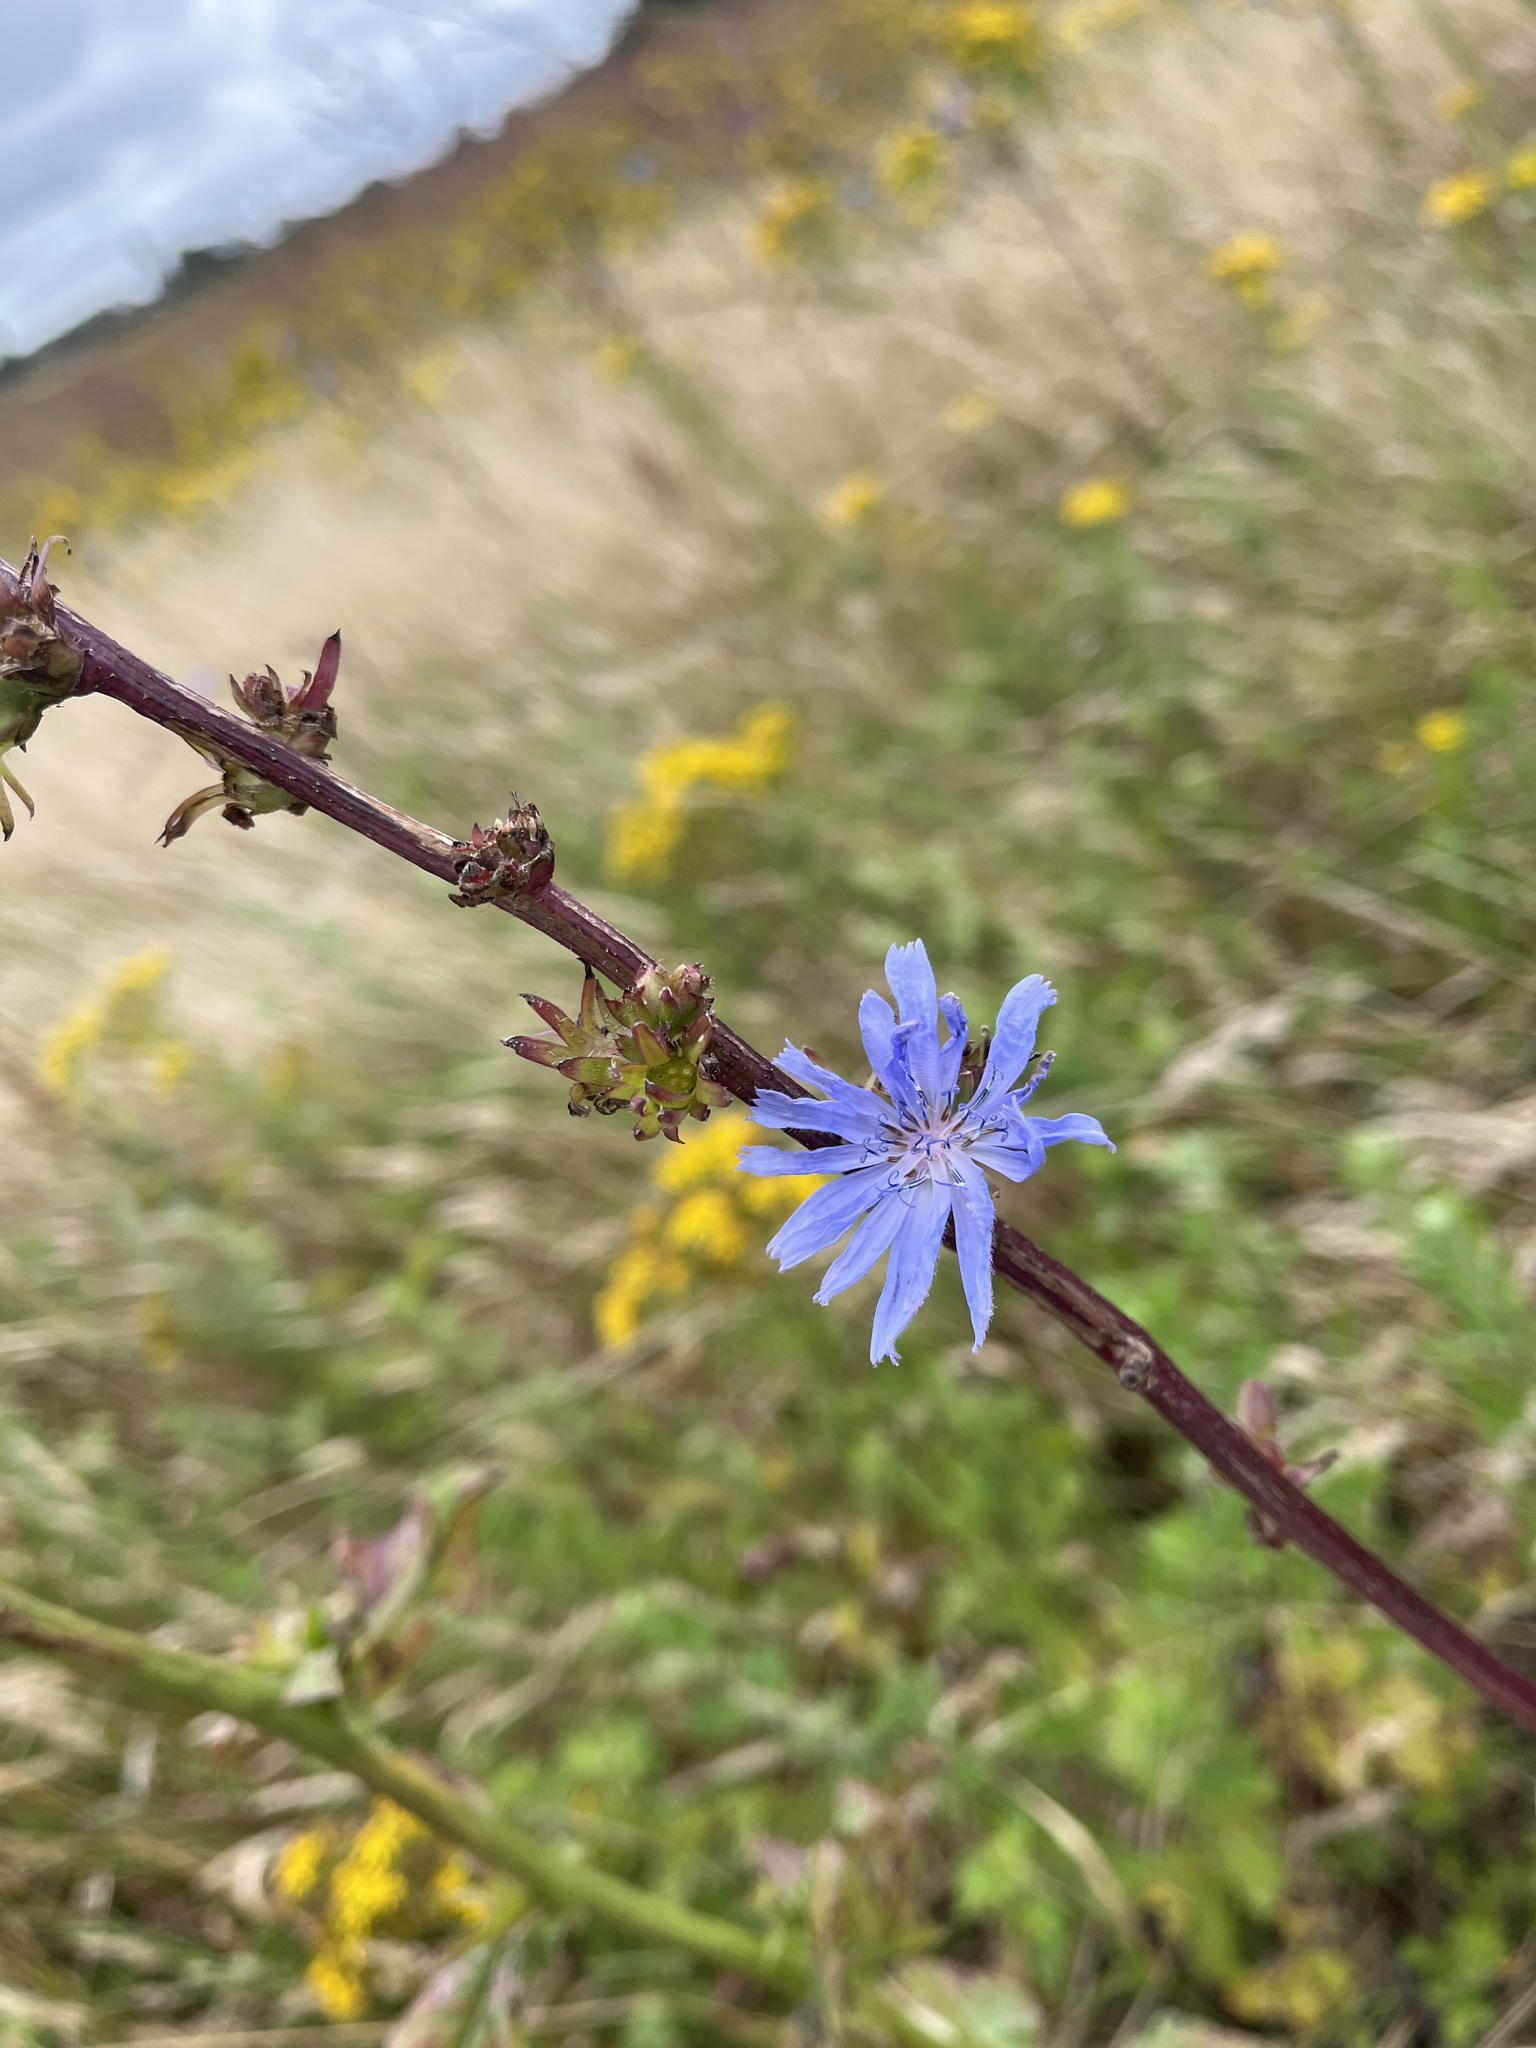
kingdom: Plantae
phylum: Tracheophyta
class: Magnoliopsida
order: Asterales
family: Asteraceae
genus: Cichorium
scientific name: Cichorium intybus
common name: Chicory
